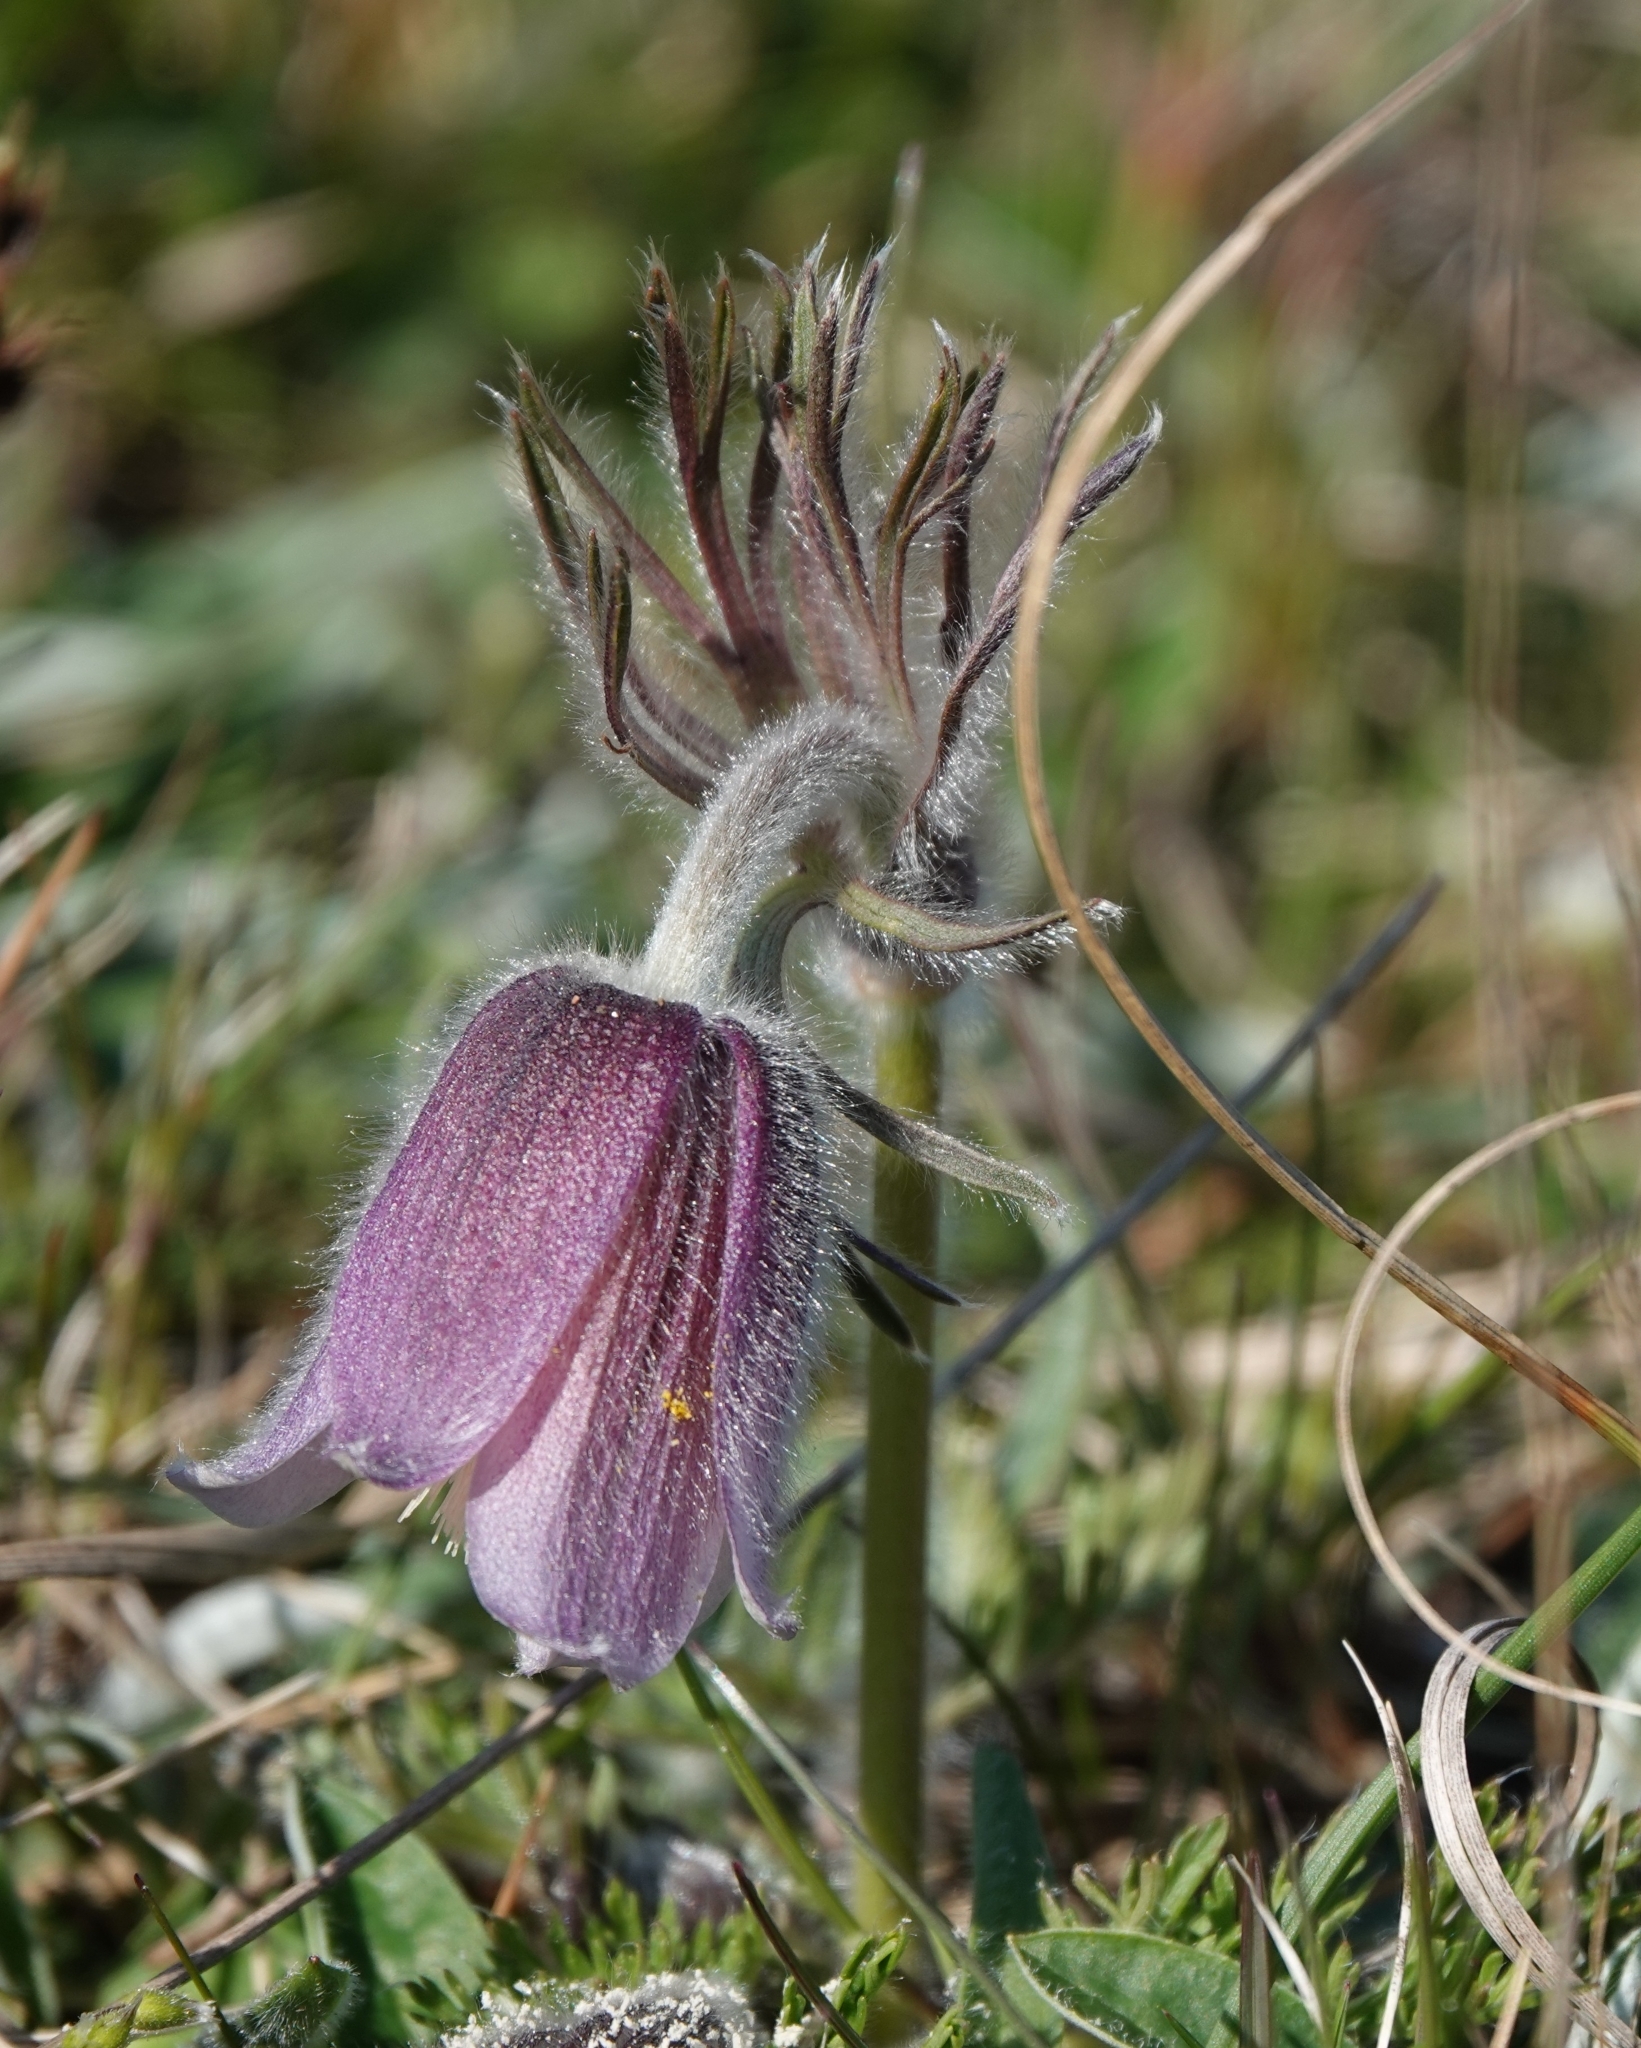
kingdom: Plantae
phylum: Tracheophyta
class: Magnoliopsida
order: Ranunculales
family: Ranunculaceae
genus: Pulsatilla
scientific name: Pulsatilla pratensis
